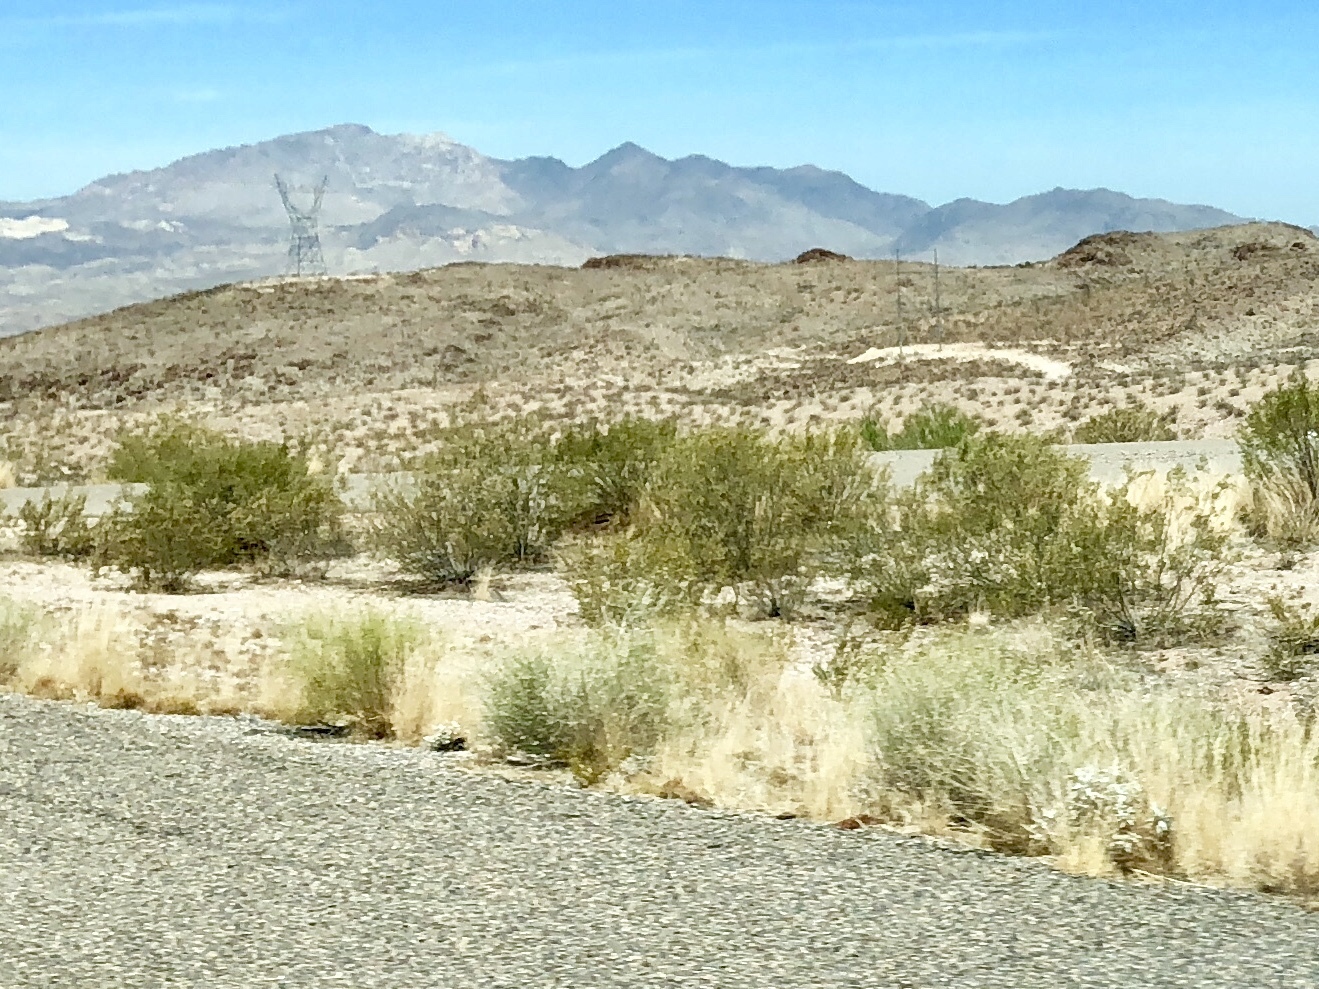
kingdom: Plantae
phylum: Tracheophyta
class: Magnoliopsida
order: Zygophyllales
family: Zygophyllaceae
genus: Larrea
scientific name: Larrea tridentata
